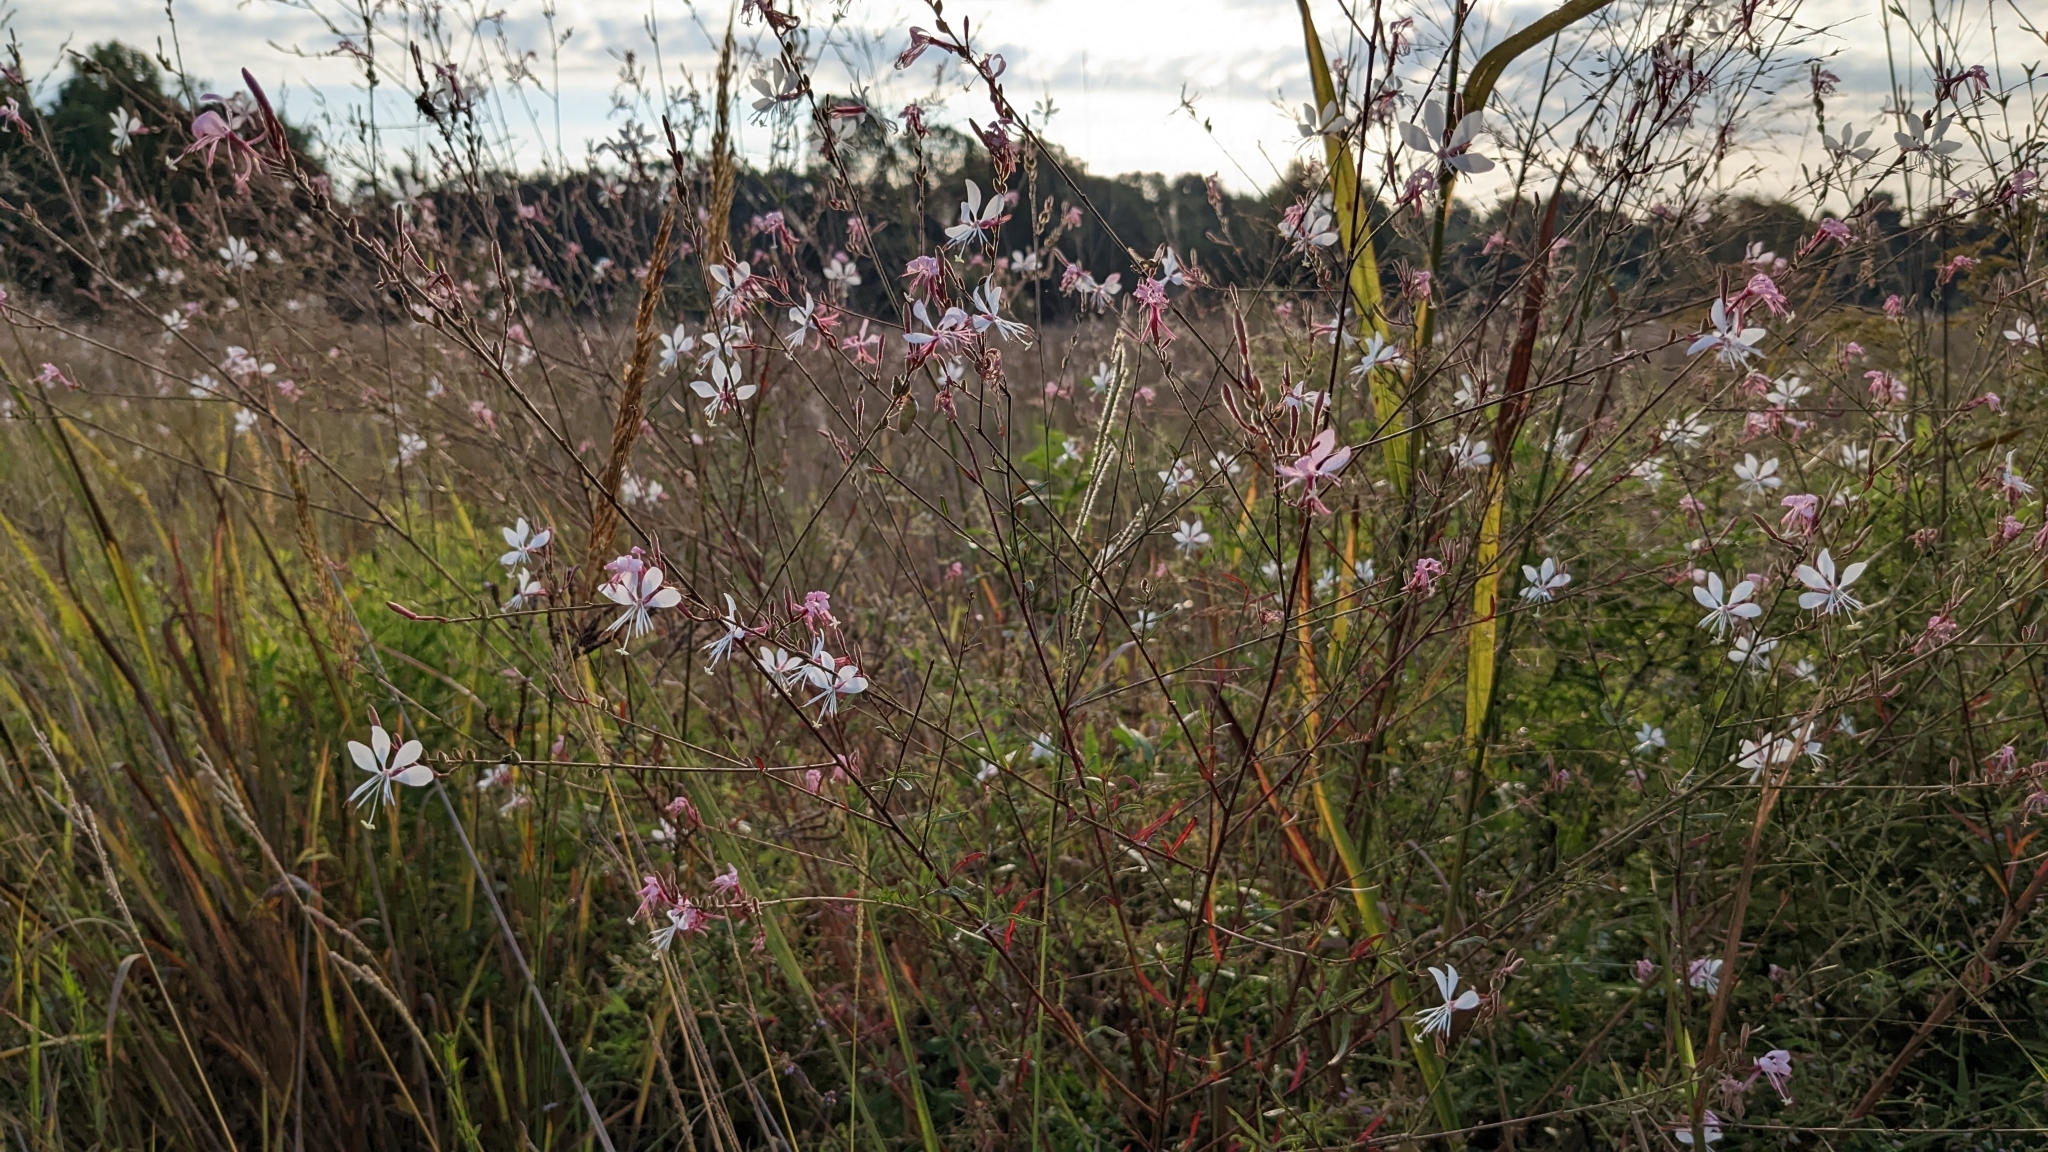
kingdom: Plantae
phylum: Tracheophyta
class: Magnoliopsida
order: Myrtales
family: Onagraceae
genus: Oenothera
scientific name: Oenothera filiformis
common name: Longflower beeblossom
